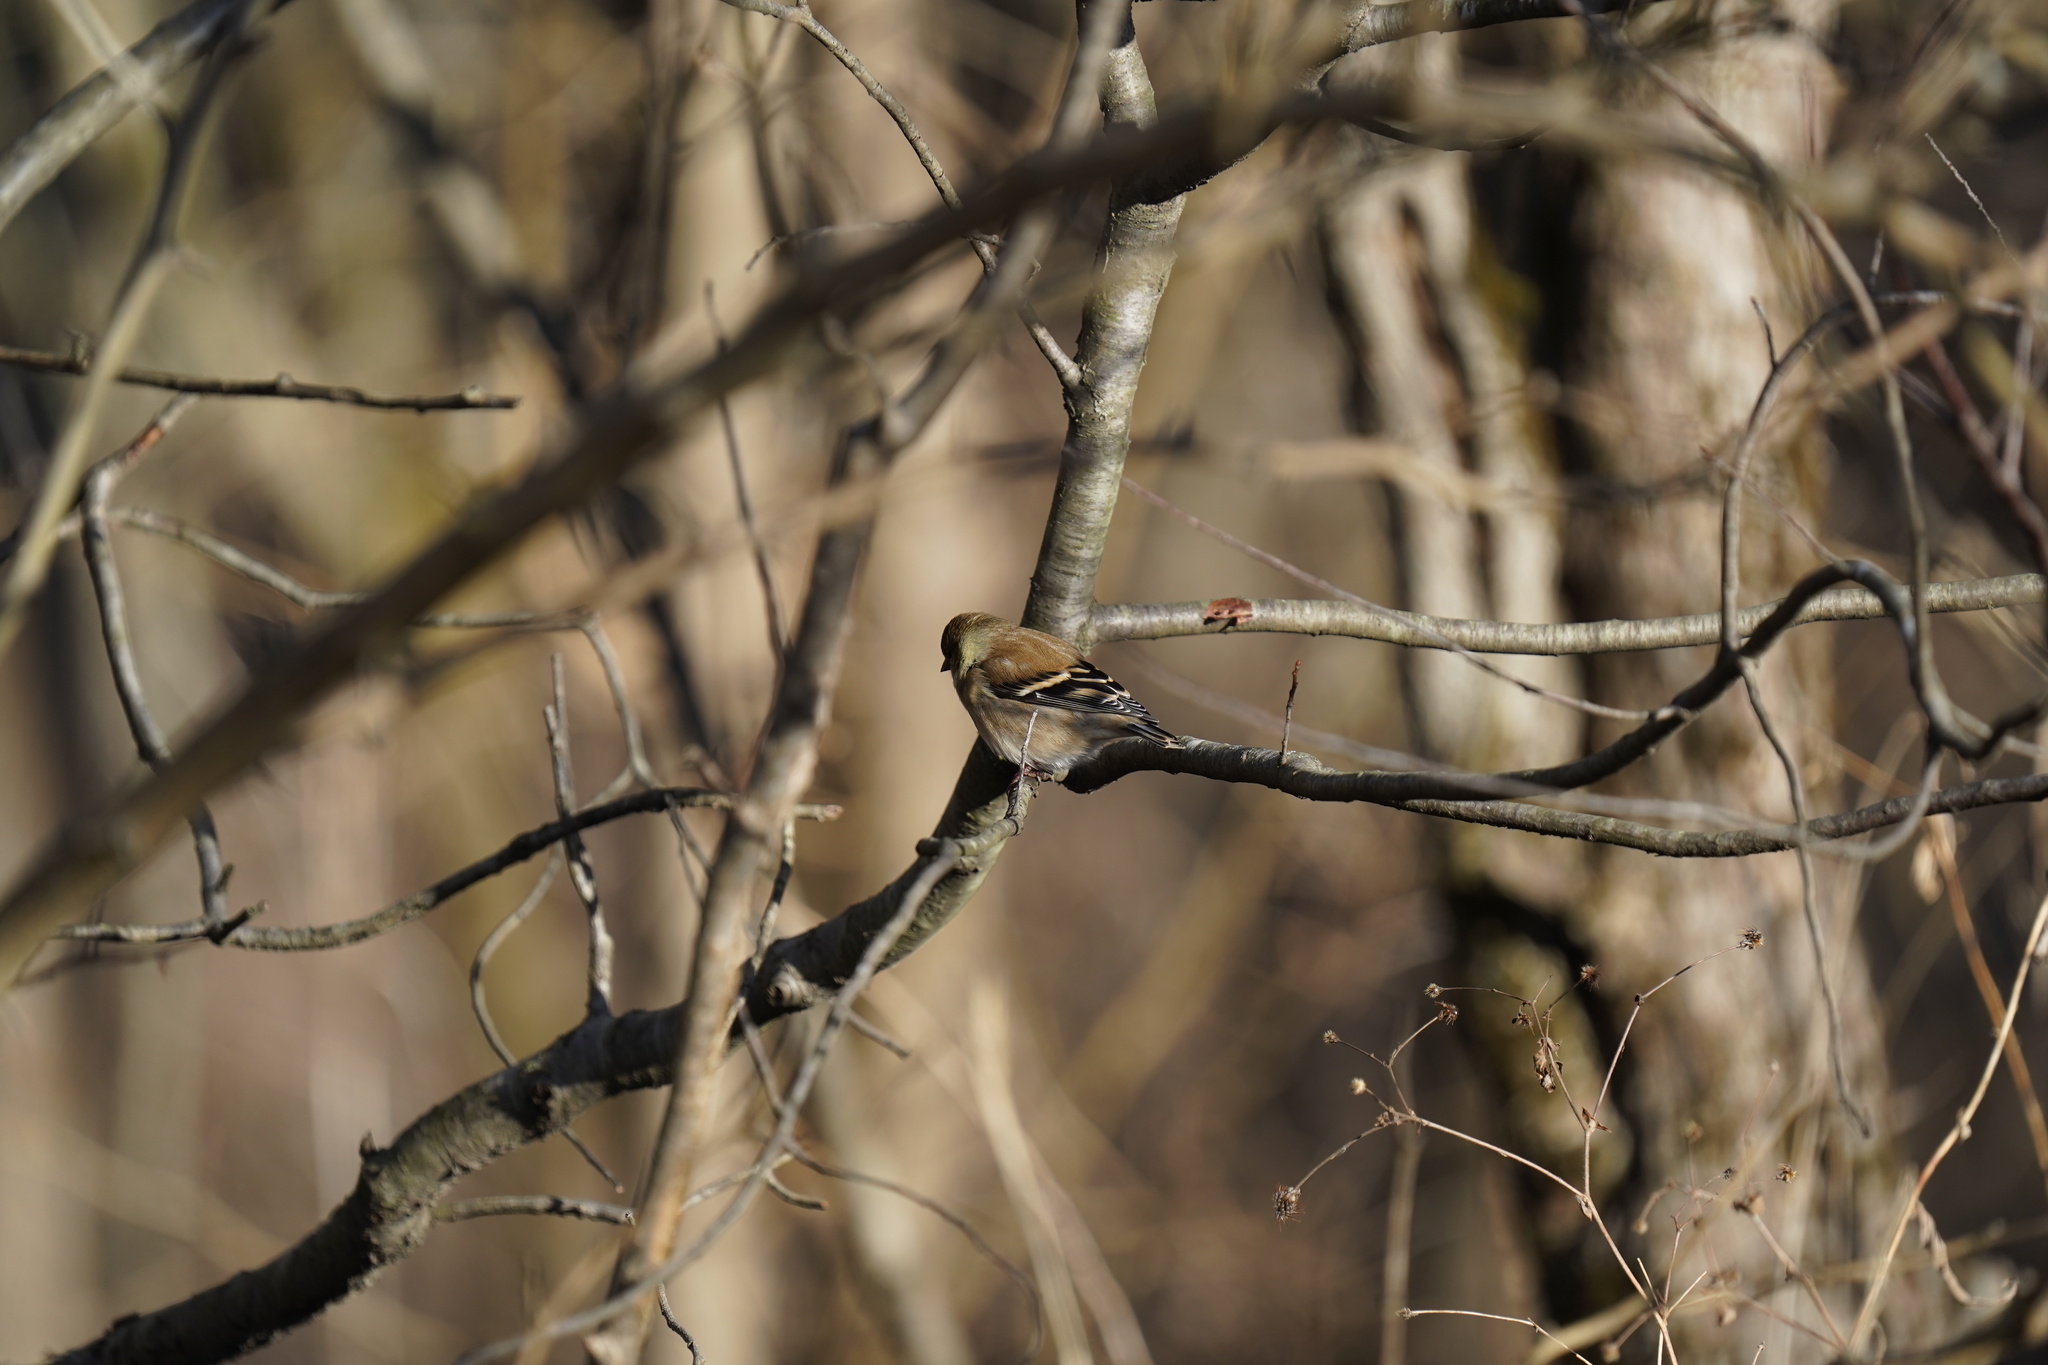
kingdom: Animalia
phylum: Chordata
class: Aves
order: Passeriformes
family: Fringillidae
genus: Spinus
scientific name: Spinus tristis
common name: American goldfinch
